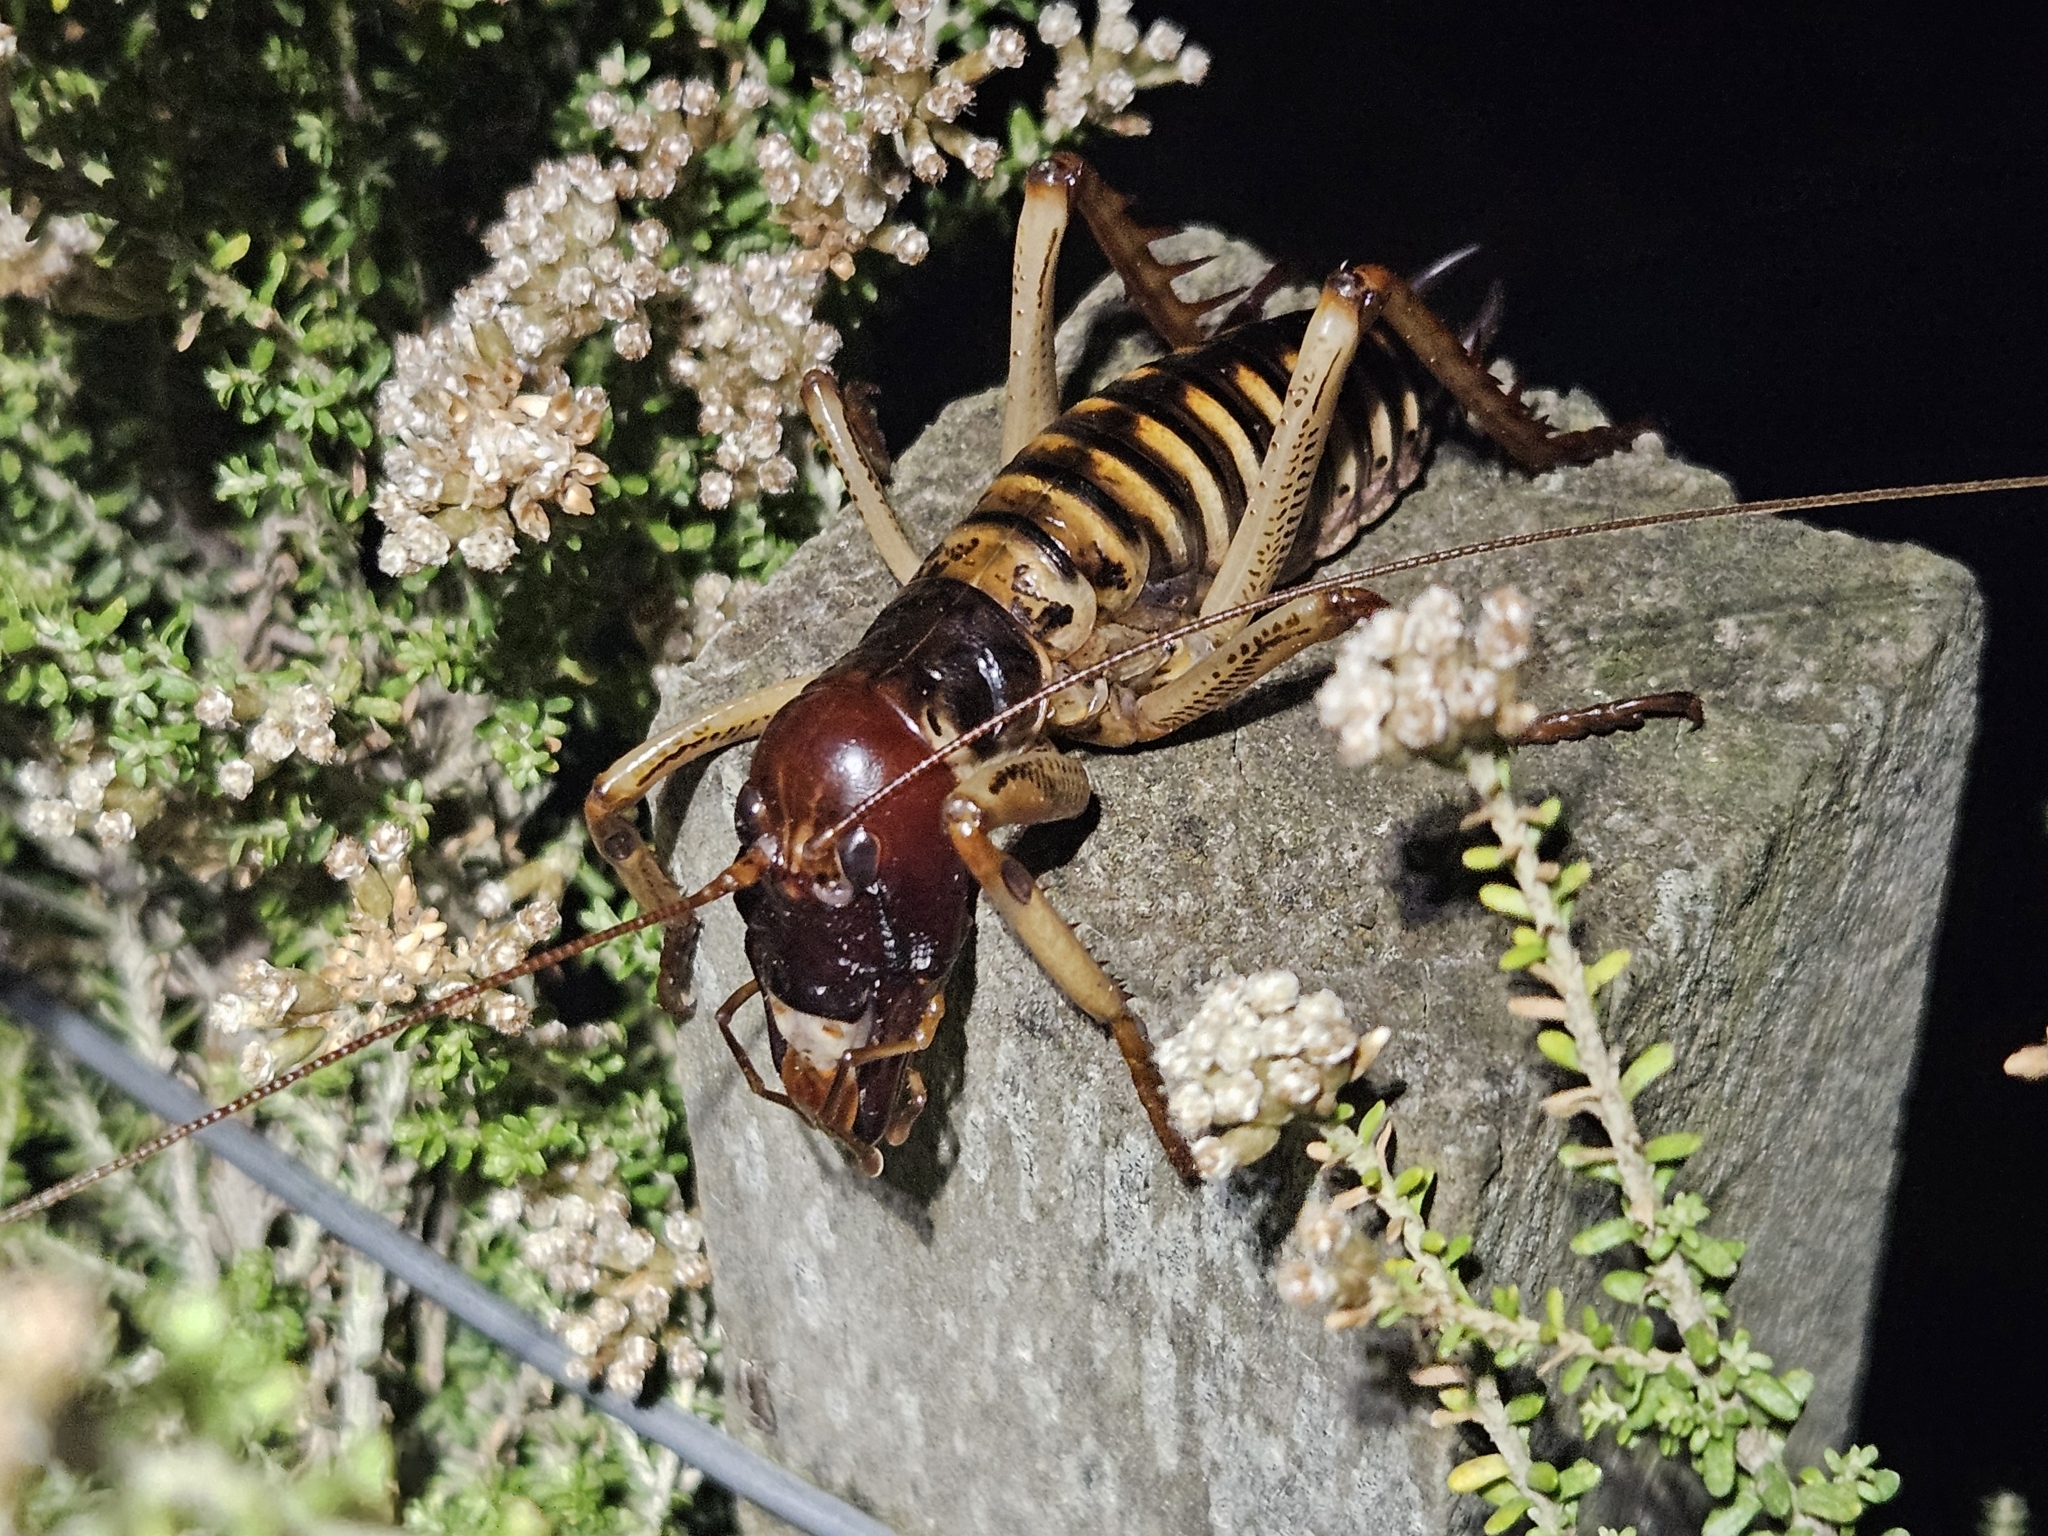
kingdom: Animalia
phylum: Arthropoda
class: Insecta
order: Orthoptera
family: Anostostomatidae
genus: Hemideina
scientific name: Hemideina crassidens
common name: Wellington tree weta
